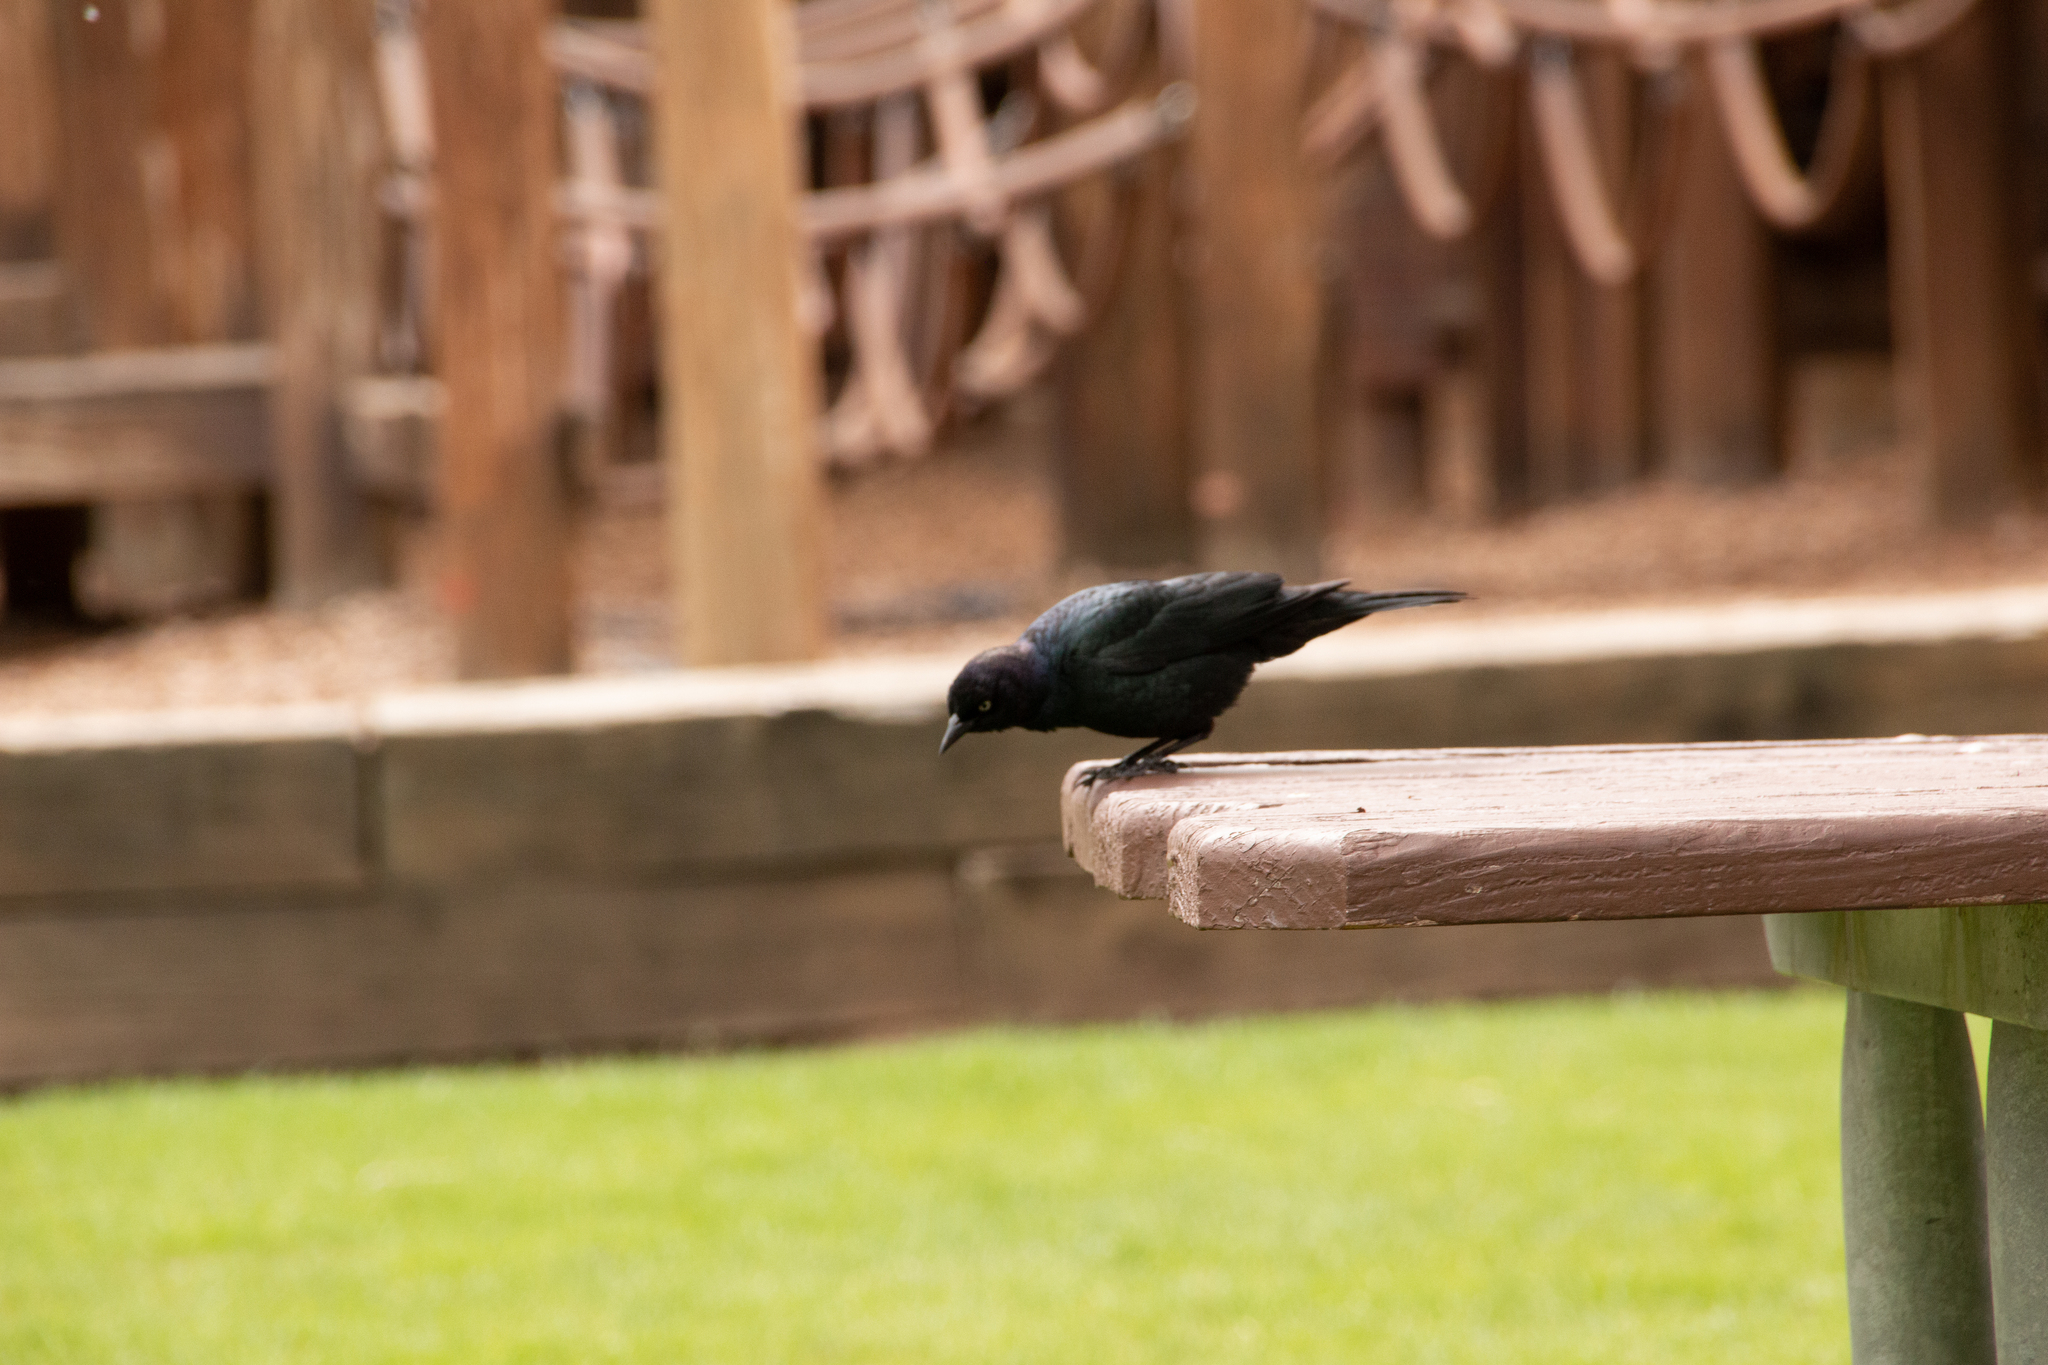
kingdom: Animalia
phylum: Chordata
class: Aves
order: Passeriformes
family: Icteridae
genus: Euphagus
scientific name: Euphagus cyanocephalus
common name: Brewer's blackbird
